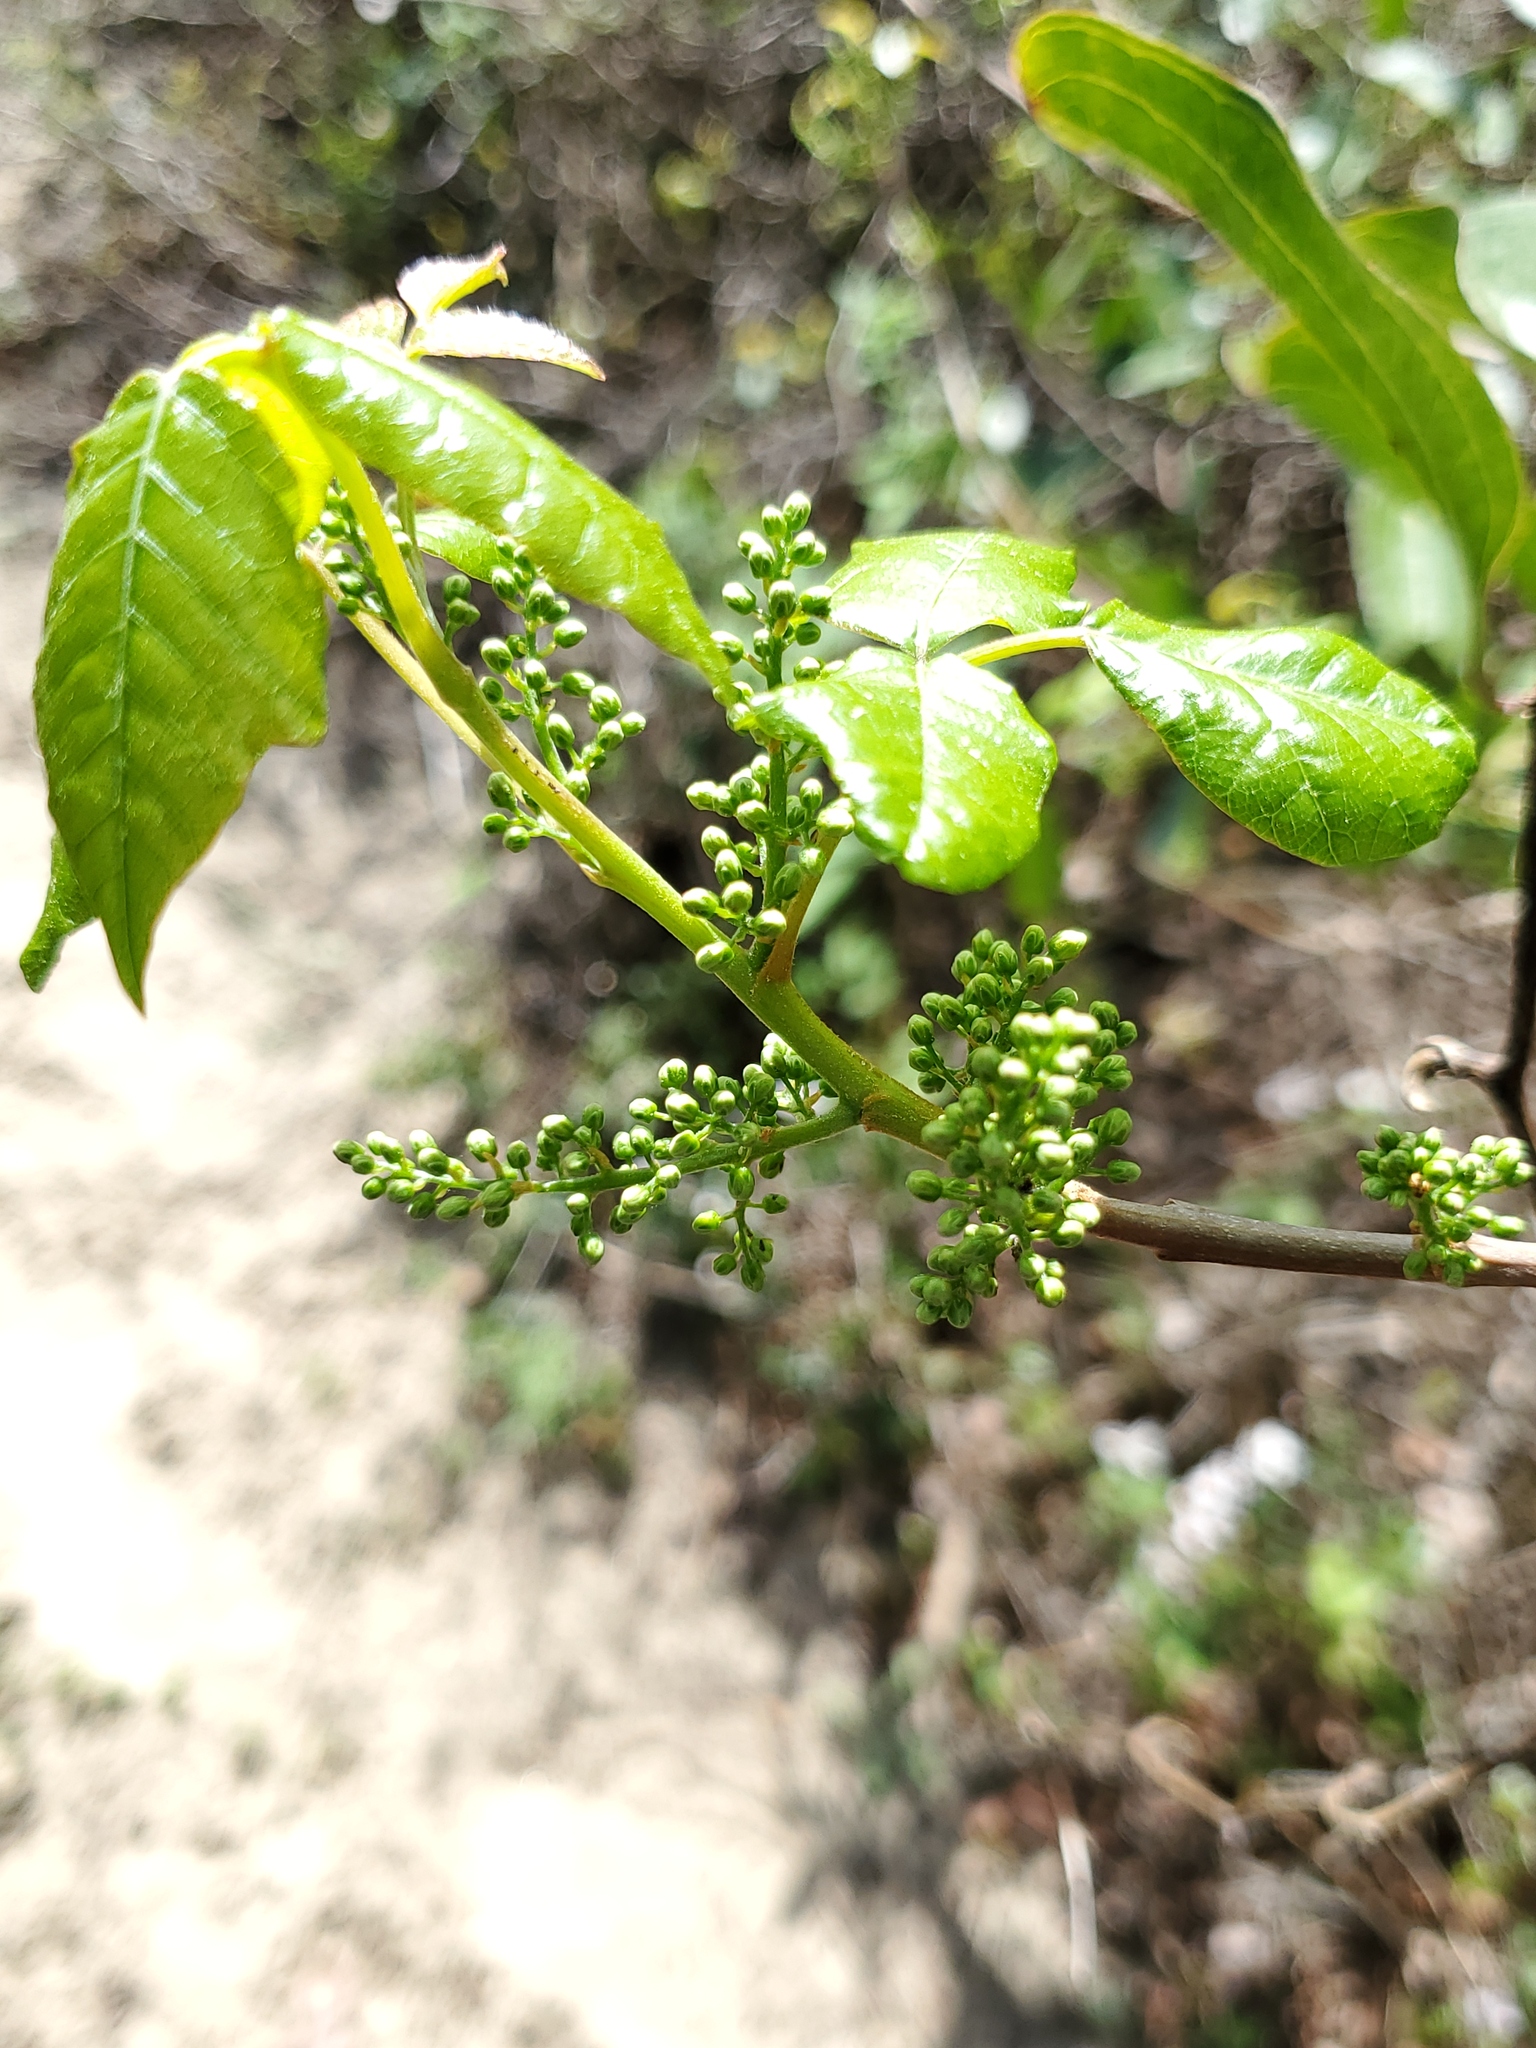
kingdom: Plantae
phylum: Tracheophyta
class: Magnoliopsida
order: Sapindales
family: Anacardiaceae
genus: Toxicodendron
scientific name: Toxicodendron radicans
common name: Poison ivy
